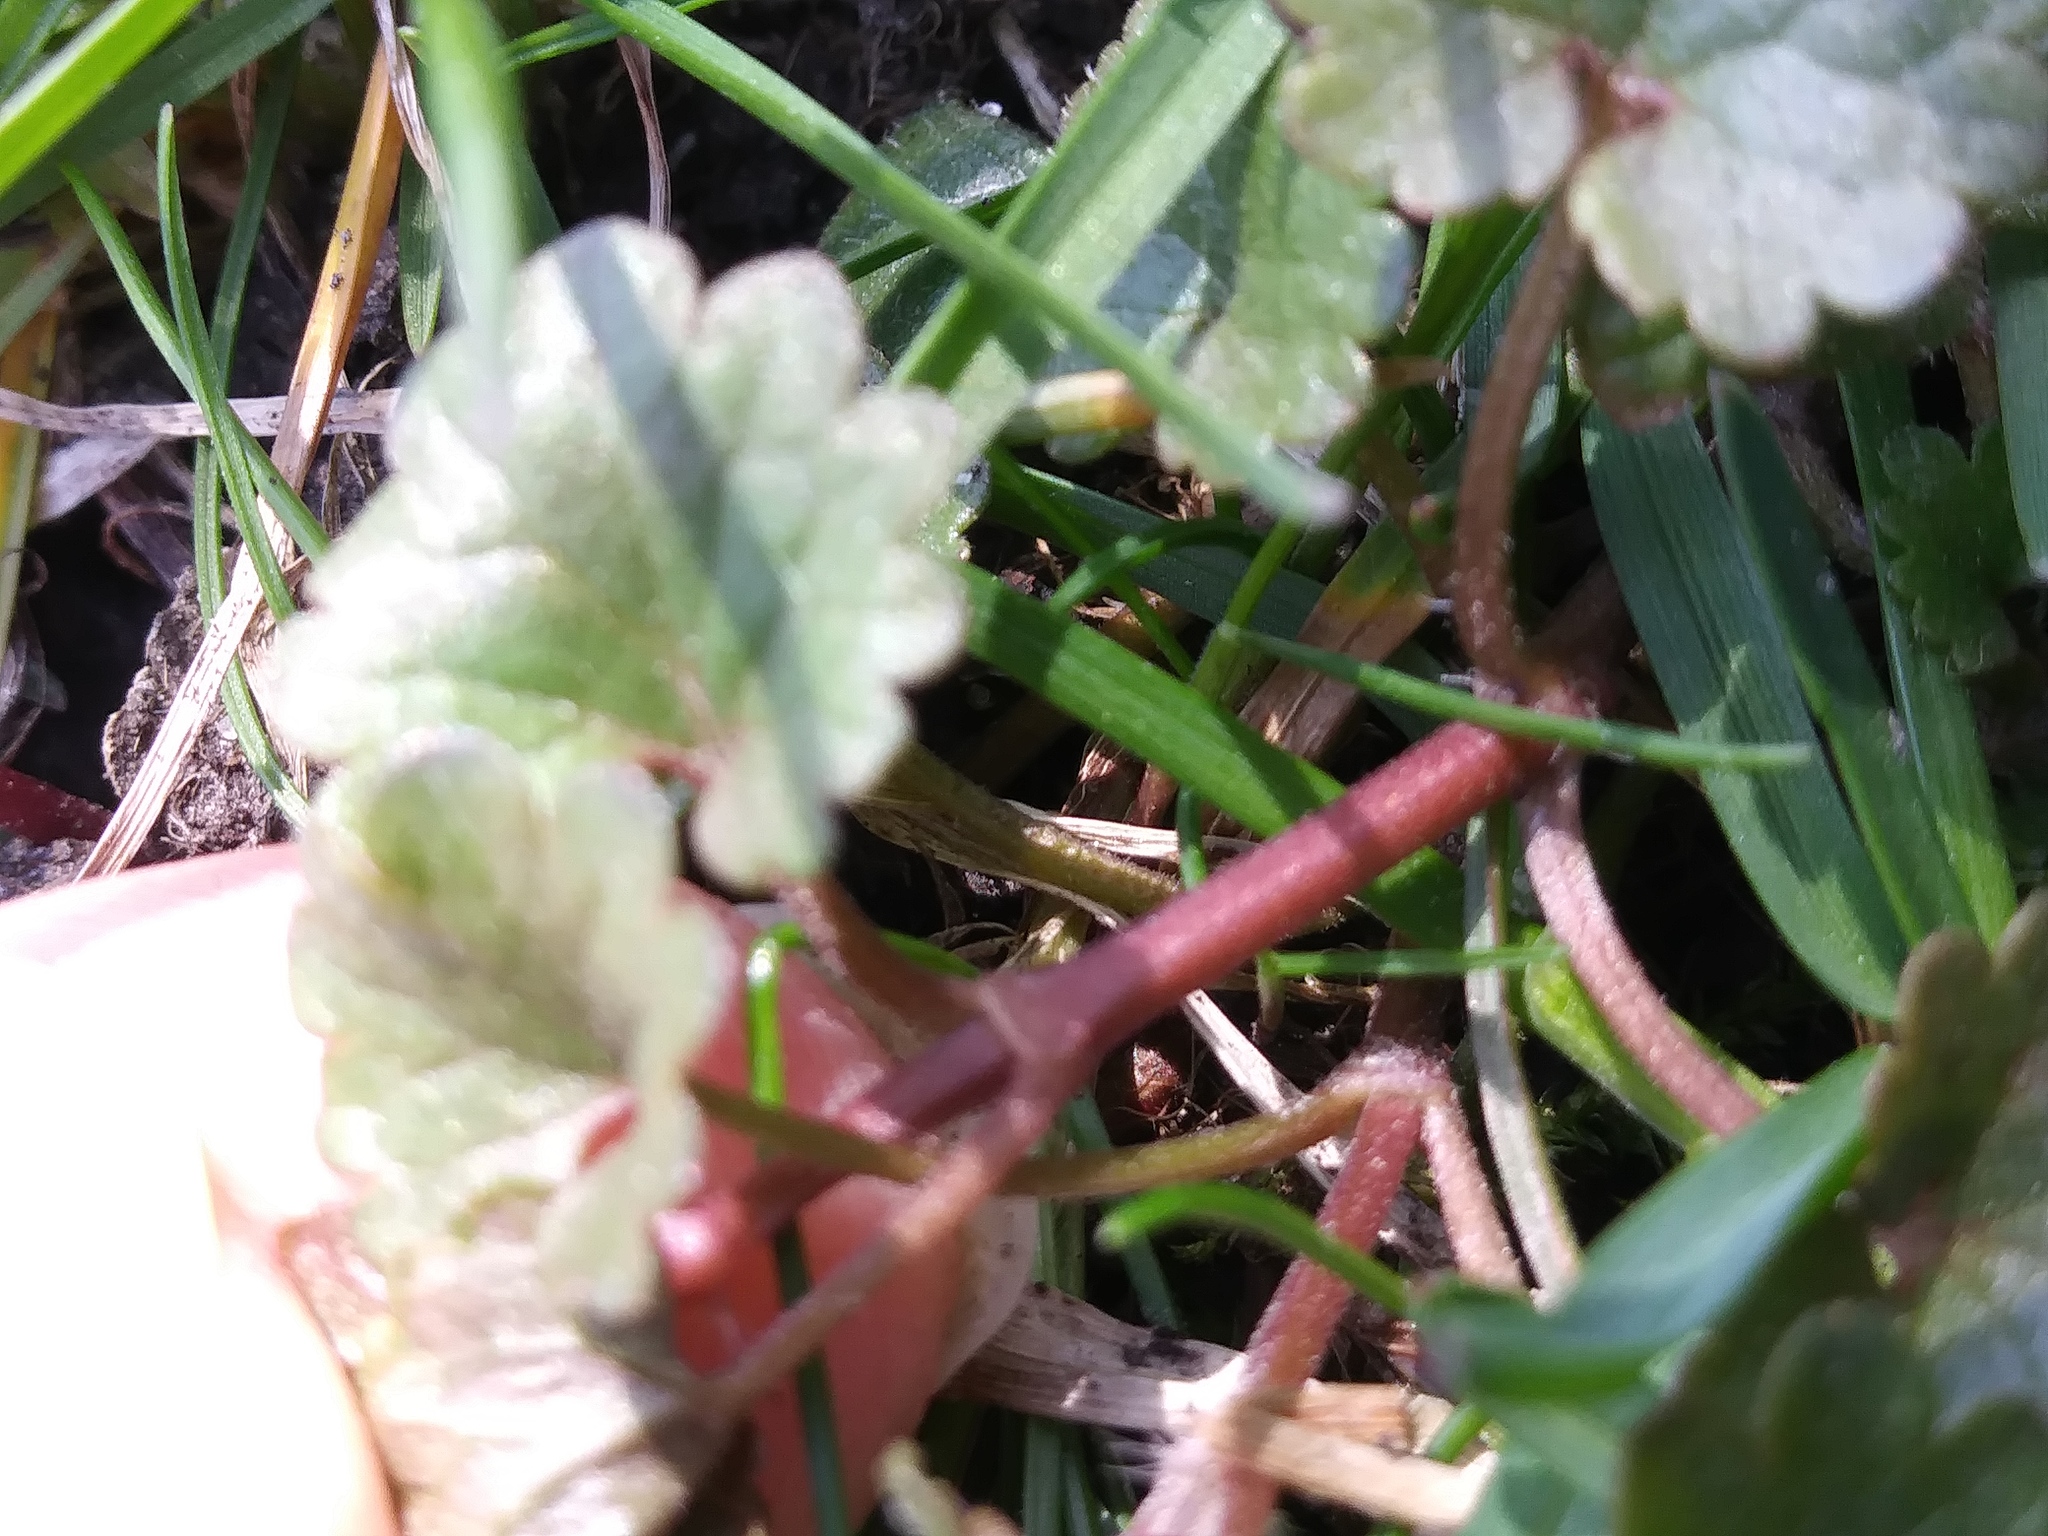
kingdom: Plantae
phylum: Tracheophyta
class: Magnoliopsida
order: Lamiales
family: Lamiaceae
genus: Glechoma
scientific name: Glechoma hederacea
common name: Ground ivy
